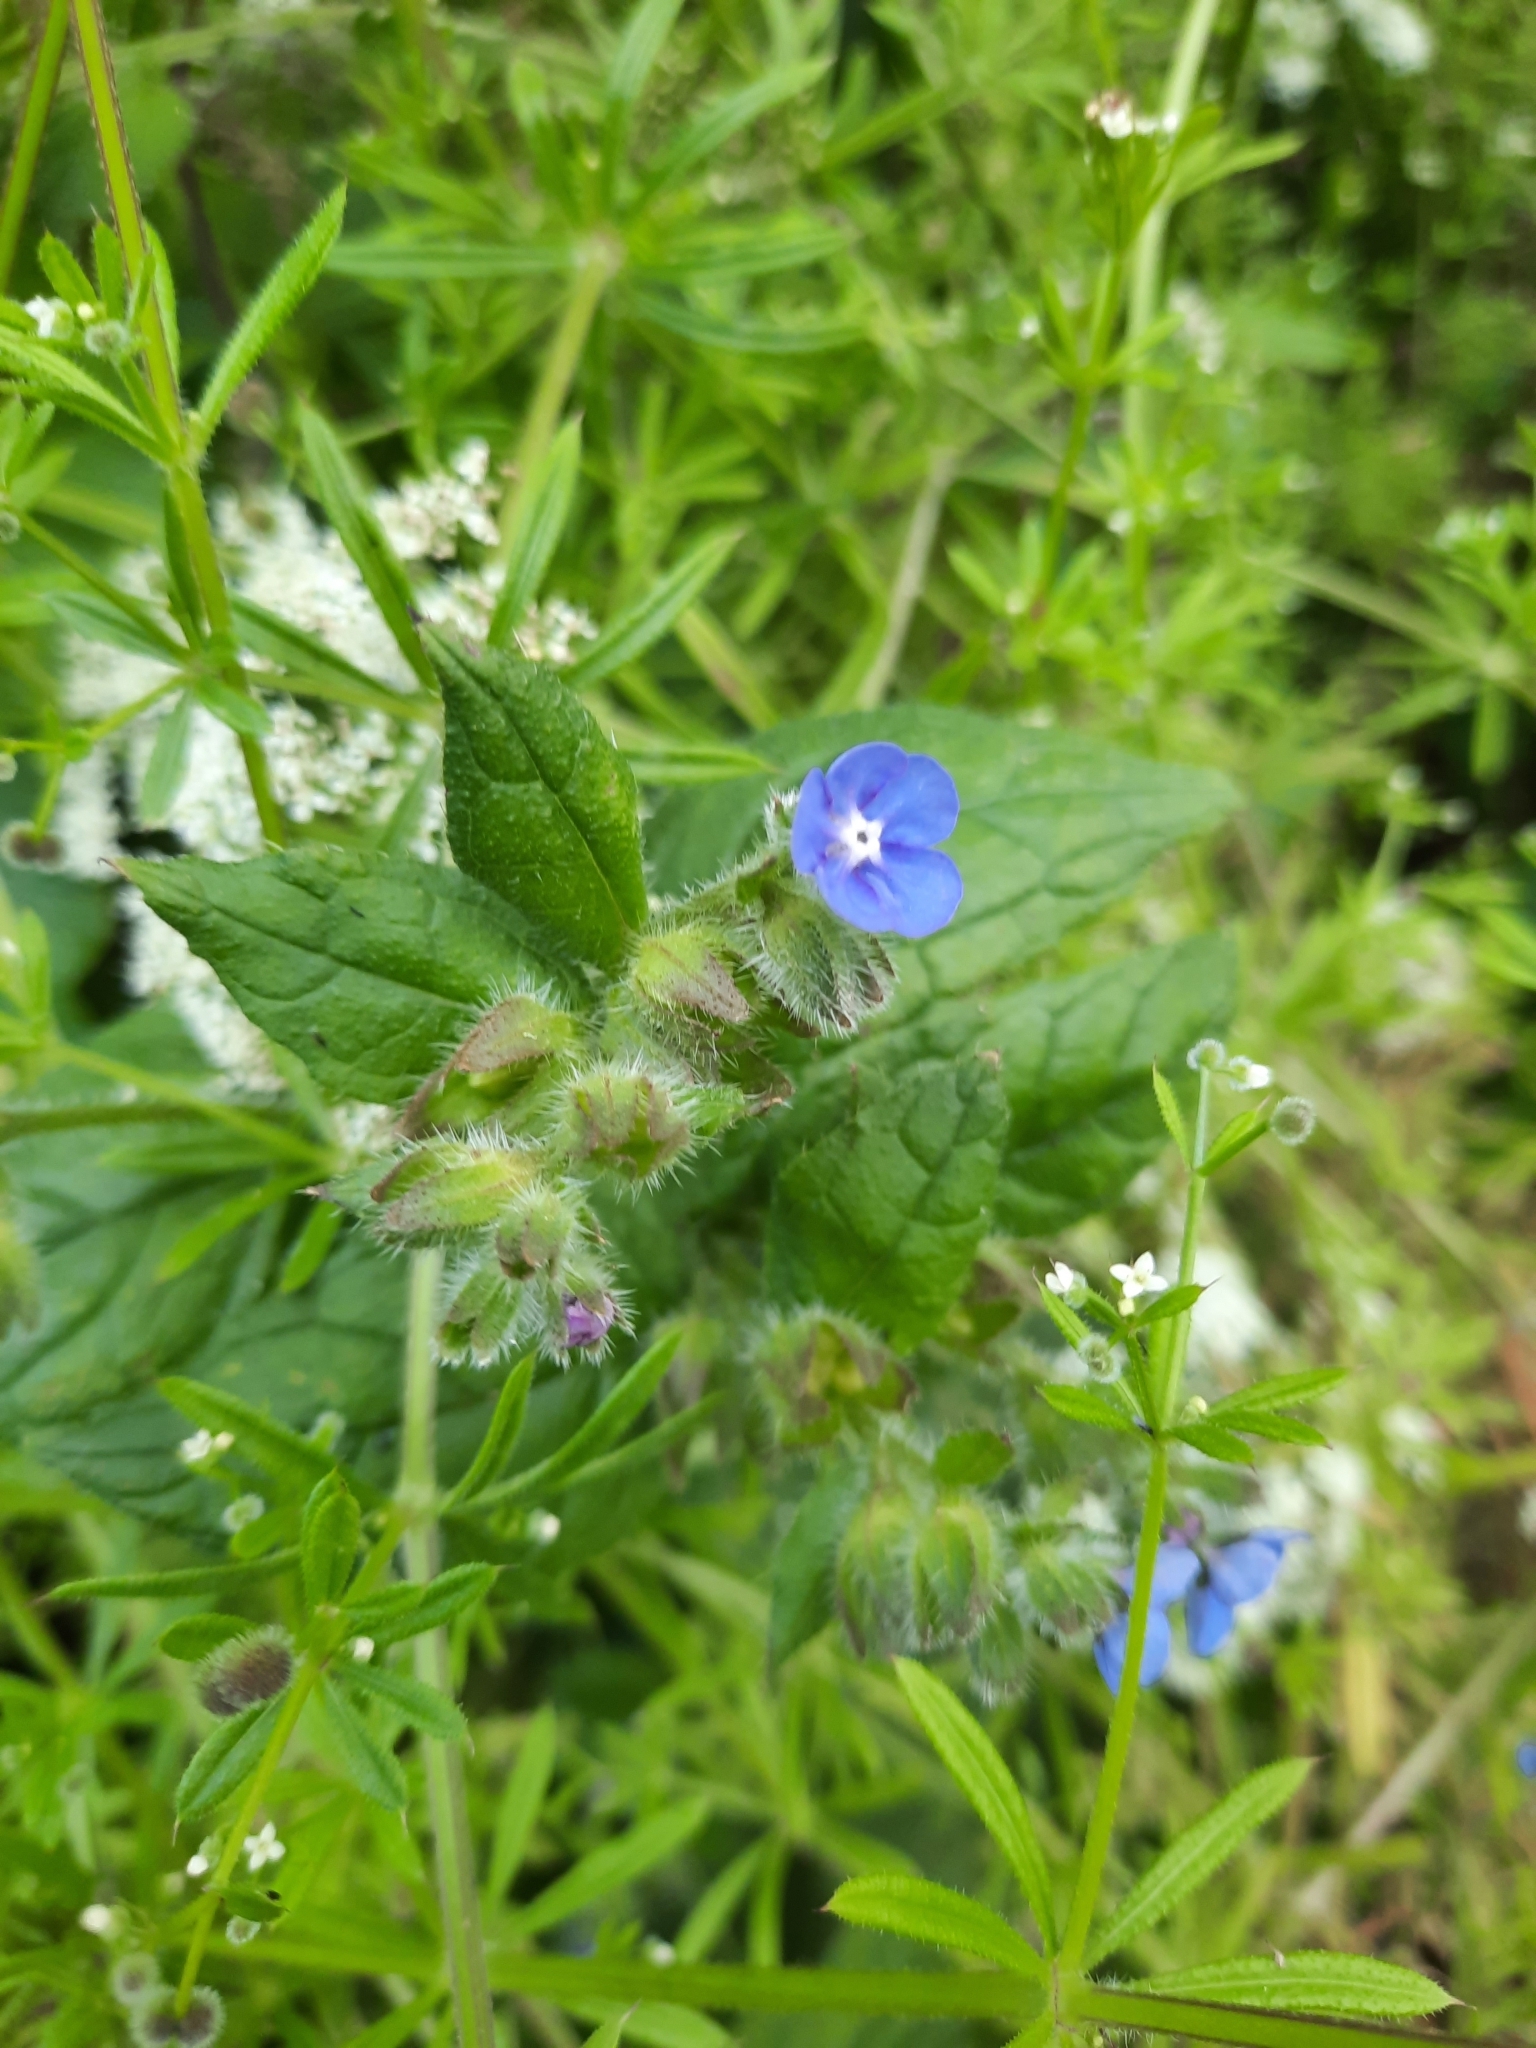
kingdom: Plantae
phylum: Tracheophyta
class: Magnoliopsida
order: Boraginales
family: Boraginaceae
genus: Pentaglottis
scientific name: Pentaglottis sempervirens
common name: Green alkanet
